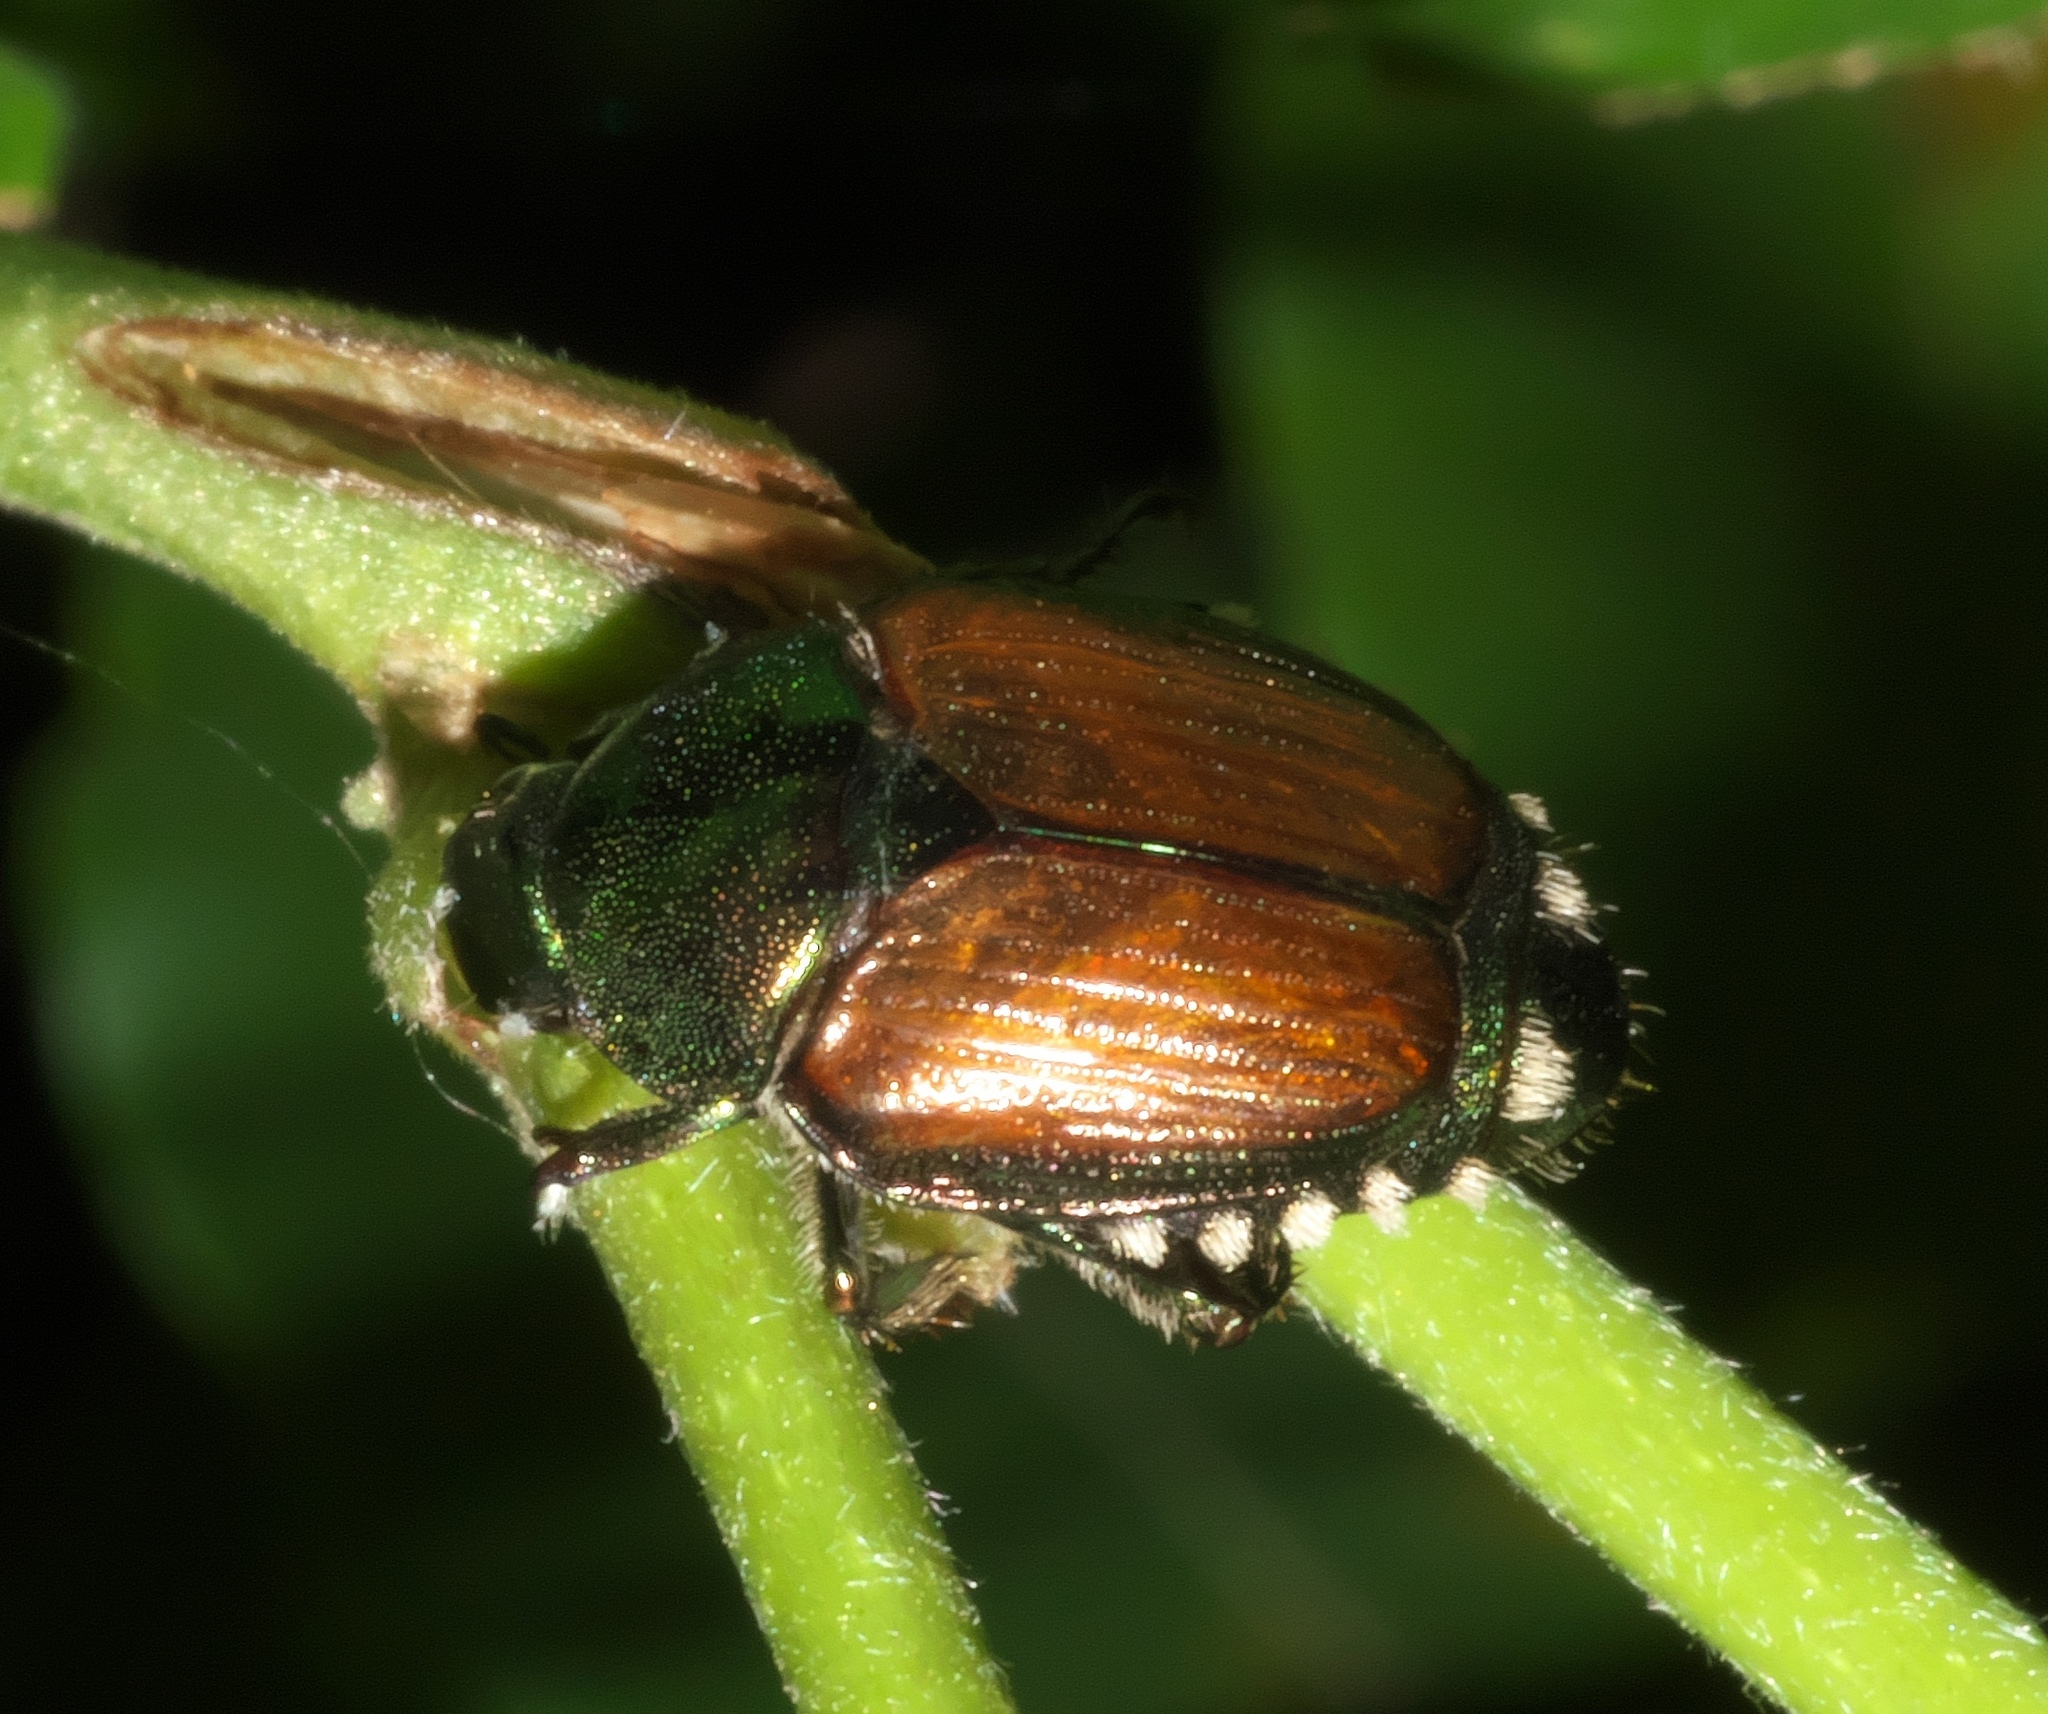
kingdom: Animalia
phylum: Arthropoda
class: Insecta
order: Coleoptera
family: Scarabaeidae
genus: Popillia
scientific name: Popillia japonica
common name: Japanese beetle
